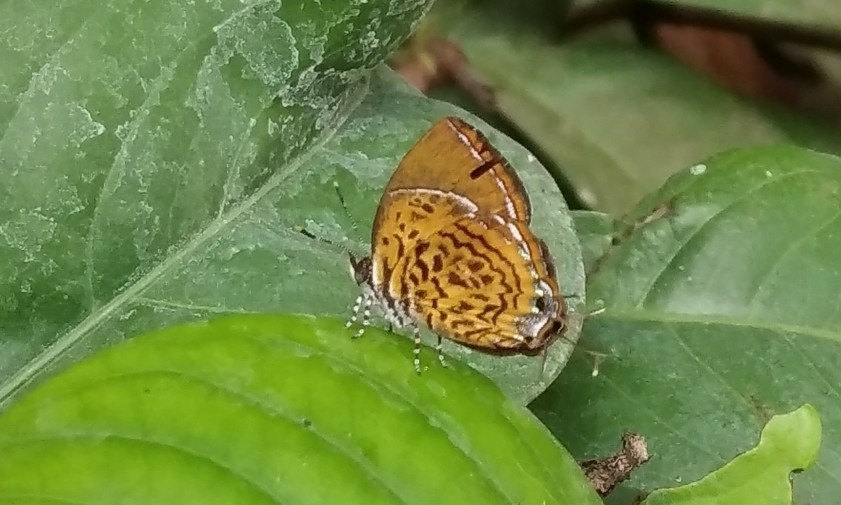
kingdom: Animalia
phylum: Arthropoda
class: Insecta
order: Lepidoptera
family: Lycaenidae
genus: Rathinda
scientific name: Rathinda amor
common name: Monkey puzzle
